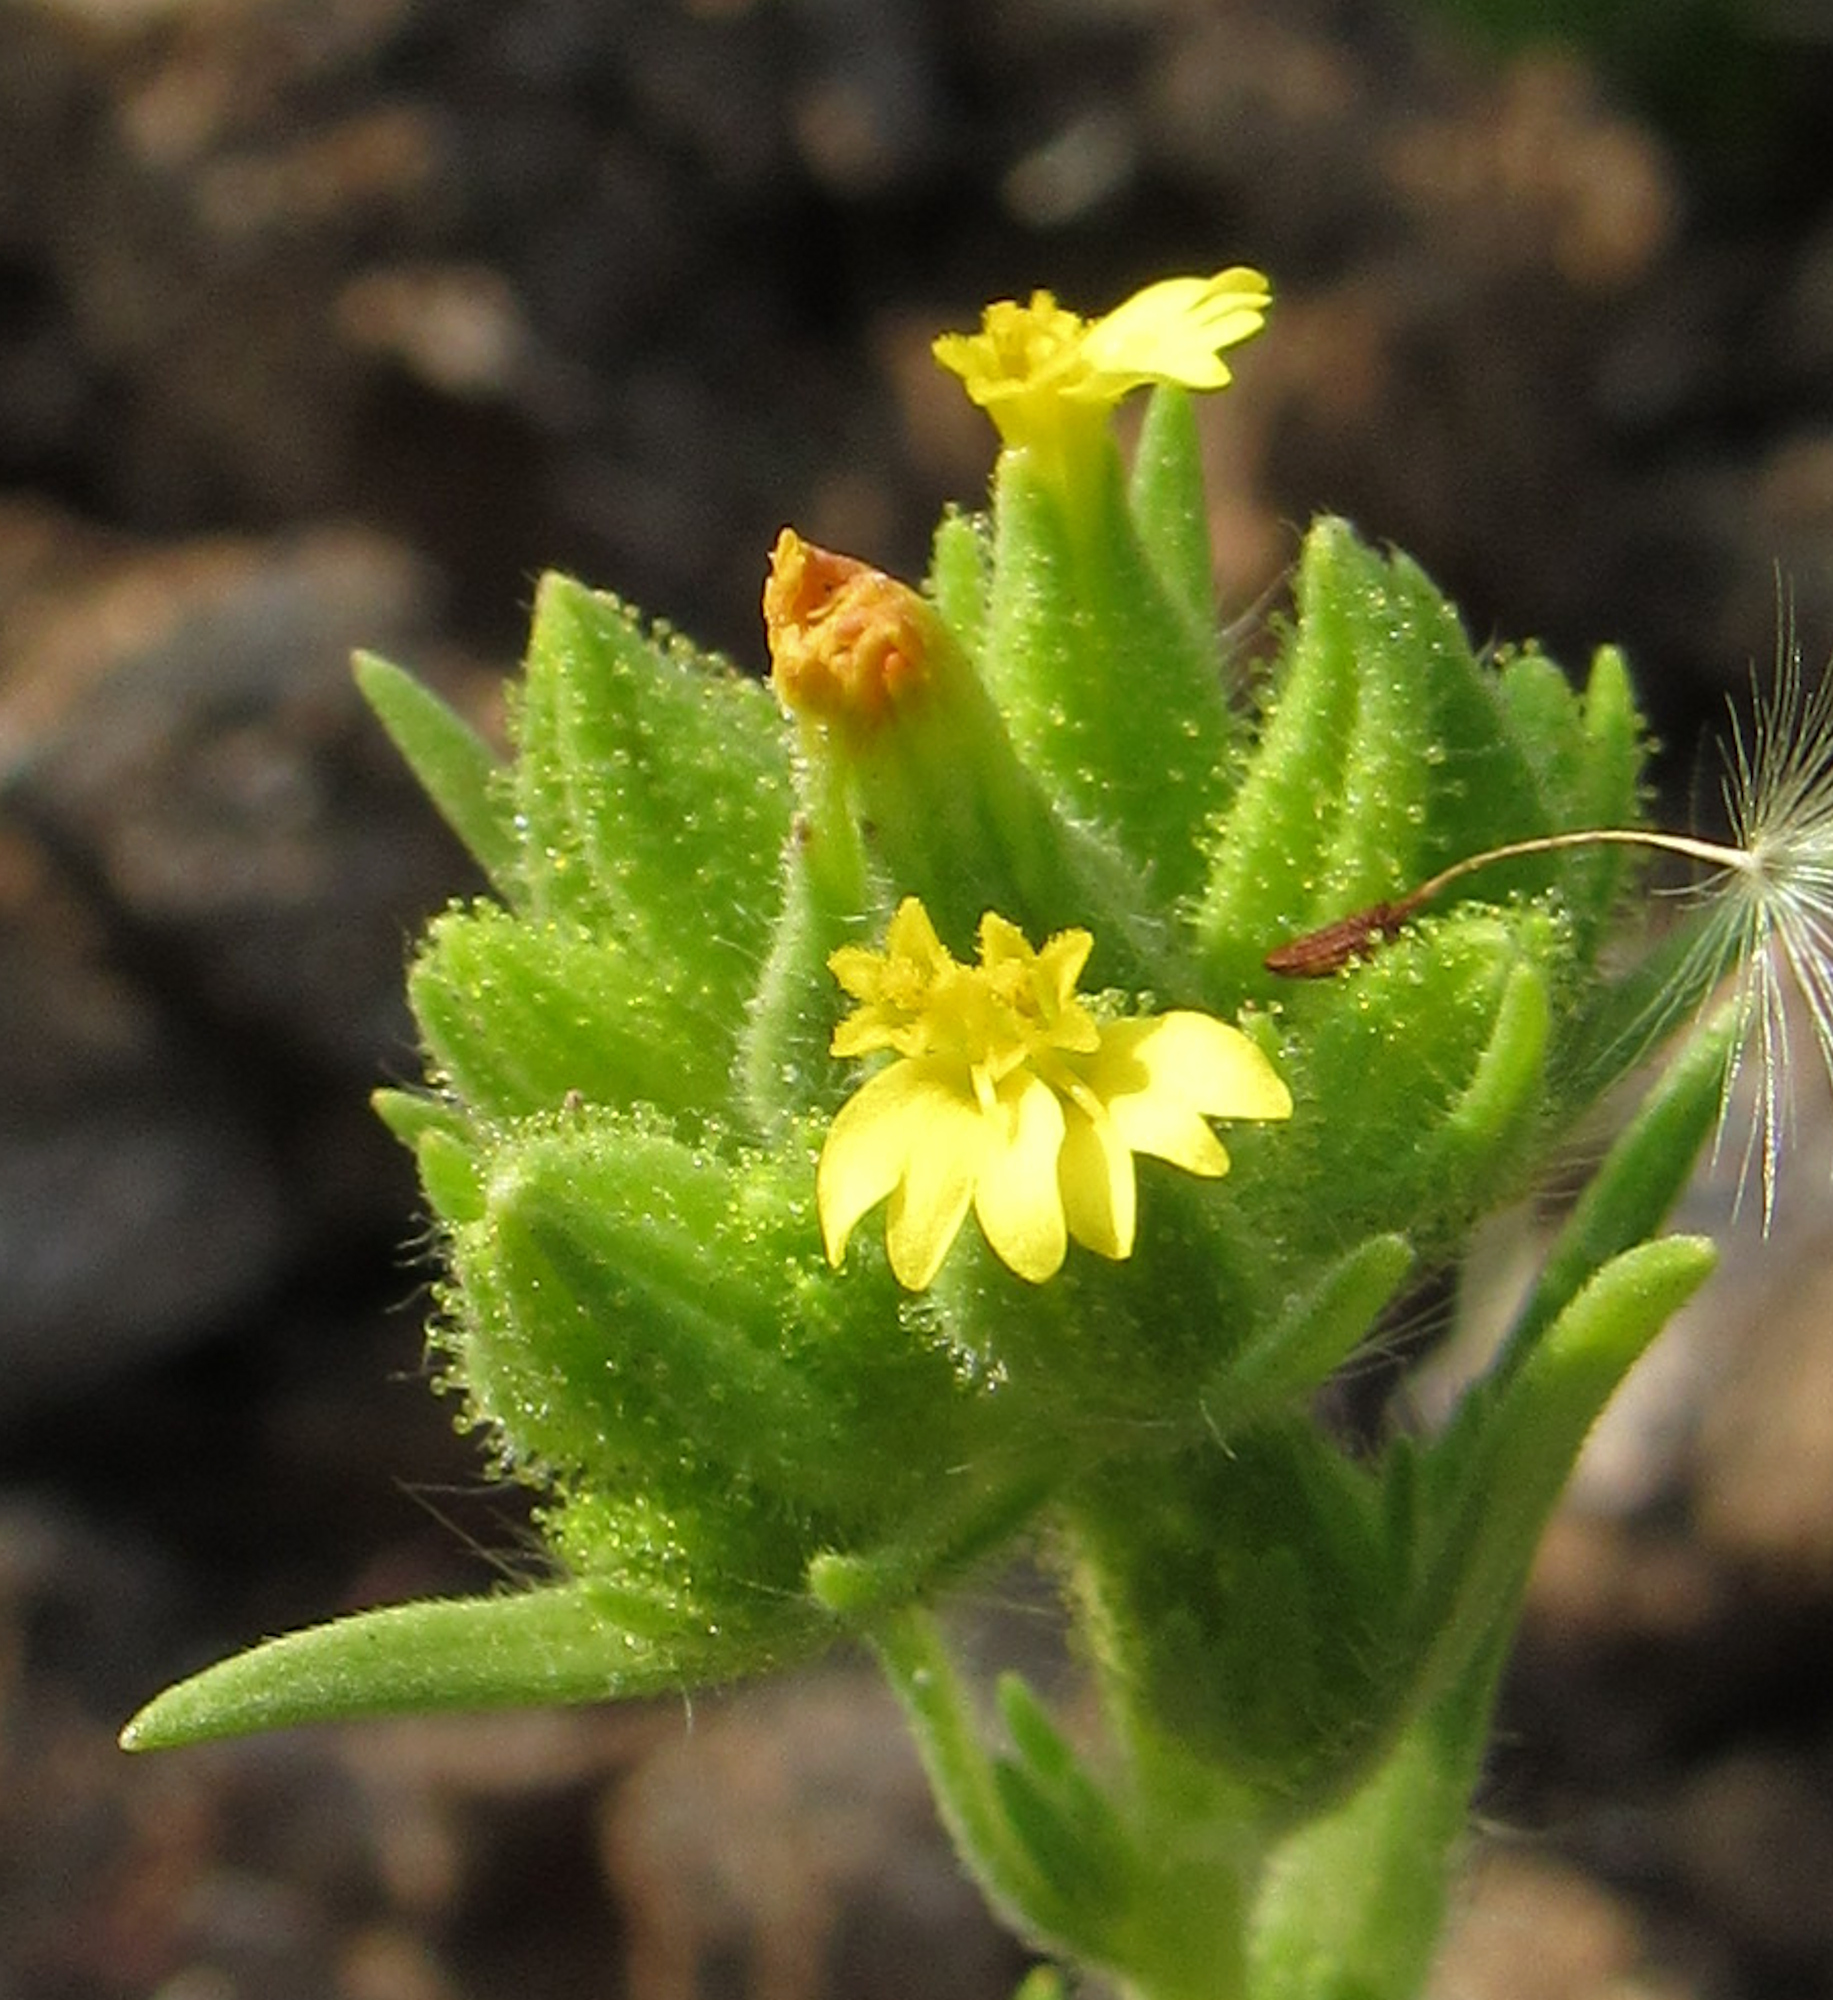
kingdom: Plantae
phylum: Tracheophyta
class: Magnoliopsida
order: Asterales
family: Asteraceae
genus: Madia
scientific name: Madia glomerata
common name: Mountain tarweed
